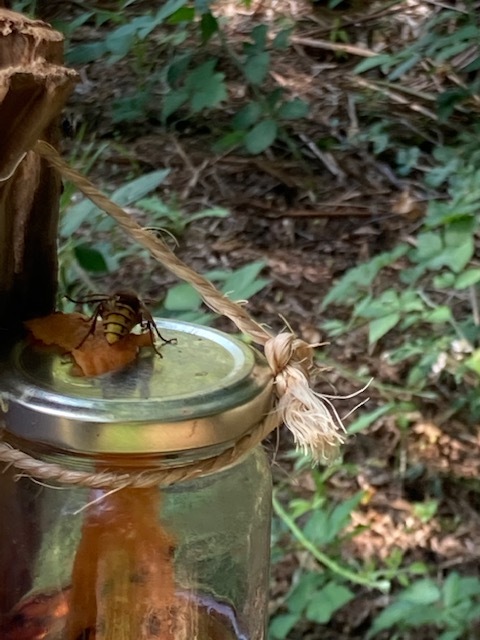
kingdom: Animalia
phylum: Arthropoda
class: Insecta
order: Hymenoptera
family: Vespidae
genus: Vespa
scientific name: Vespa crabro
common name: Hornet
